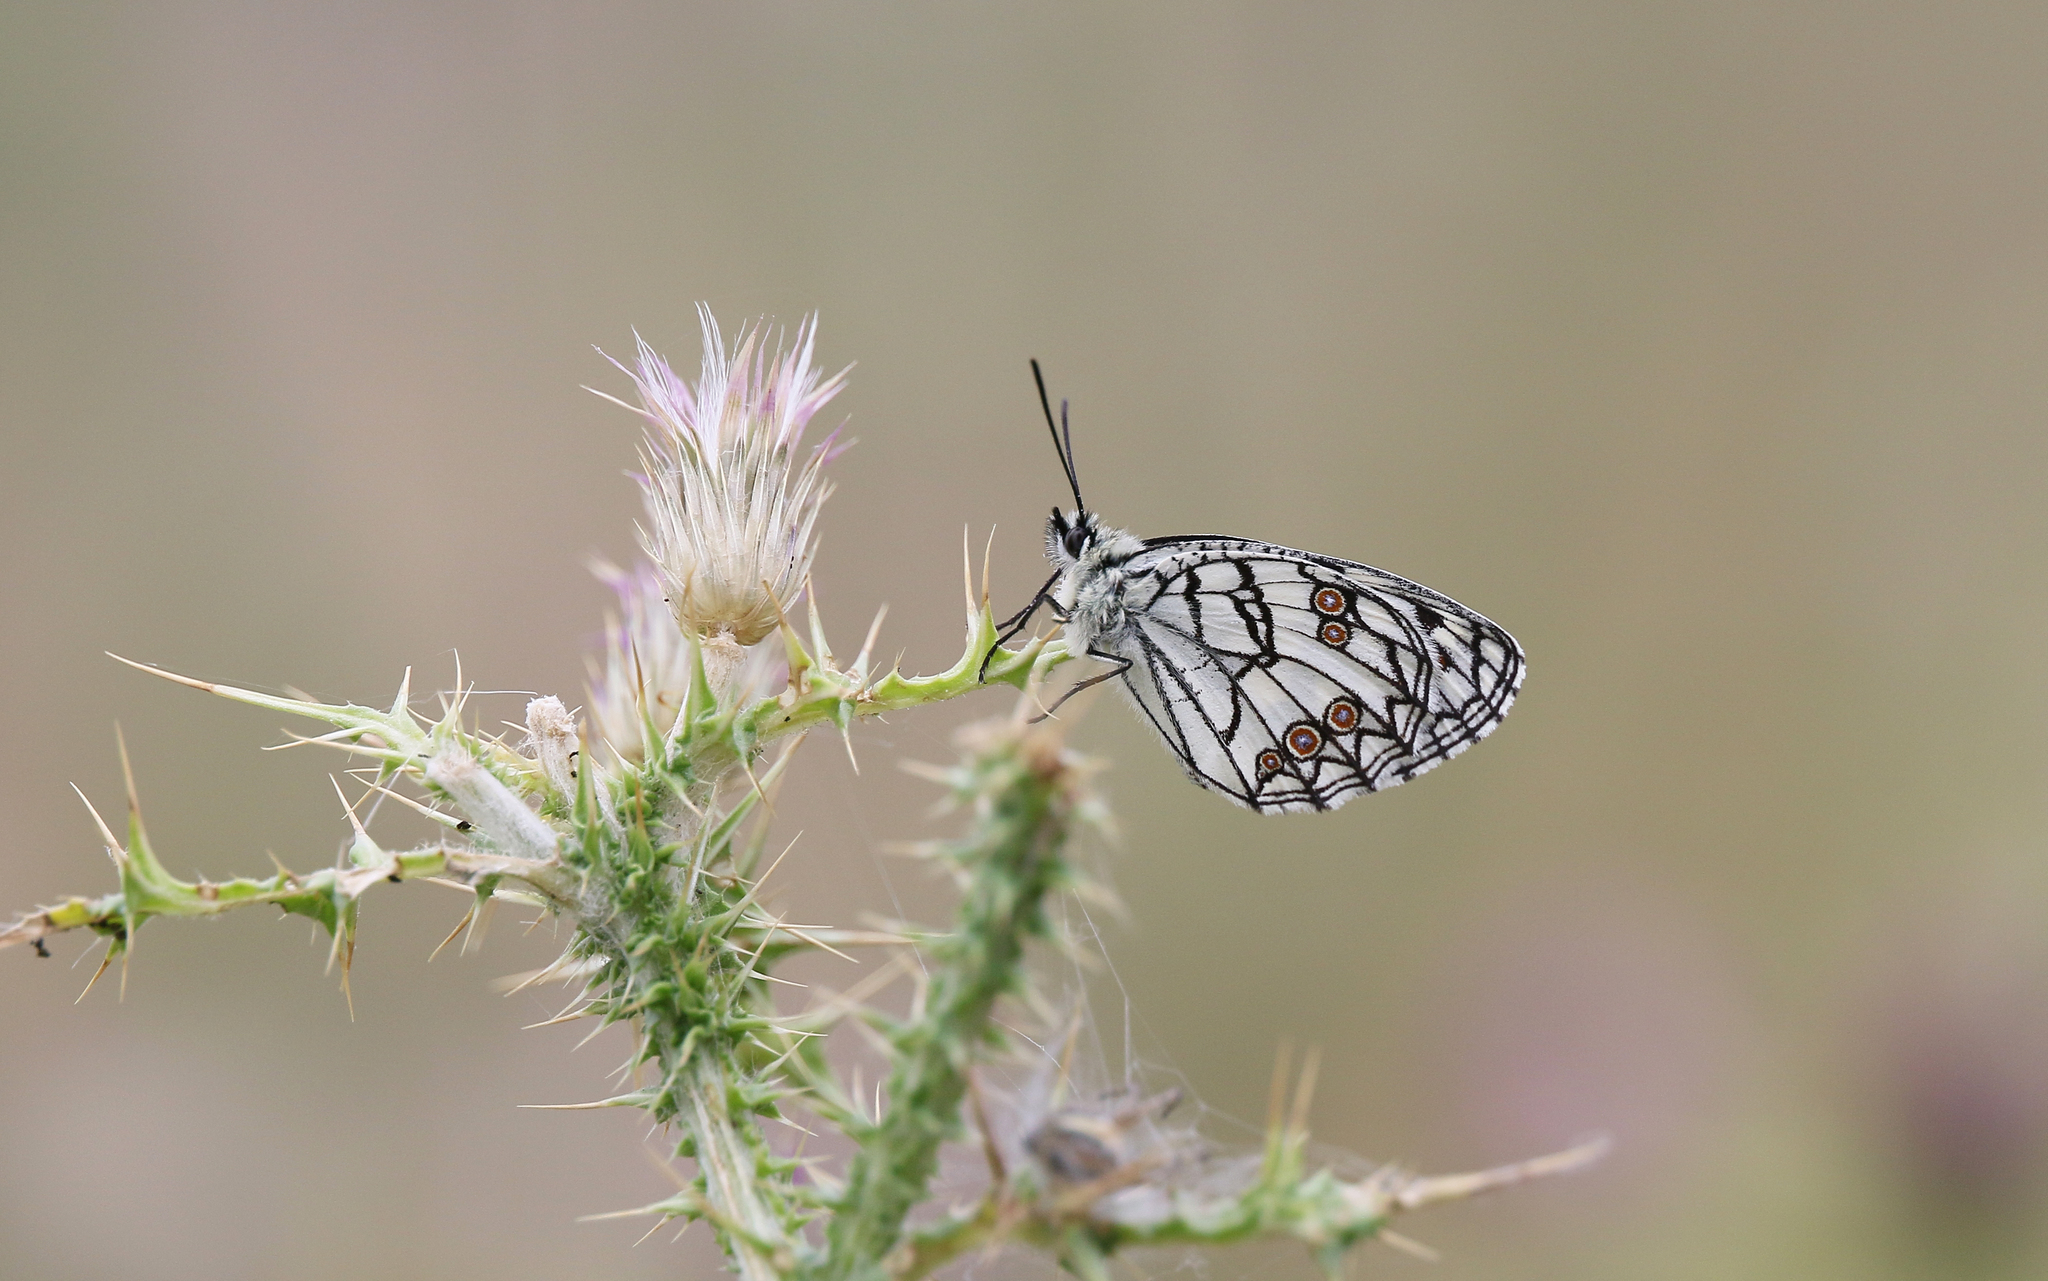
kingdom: Animalia
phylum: Arthropoda
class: Insecta
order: Lepidoptera
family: Nymphalidae
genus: Melanargia
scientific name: Melanargia ines
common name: Spanish marbled white
